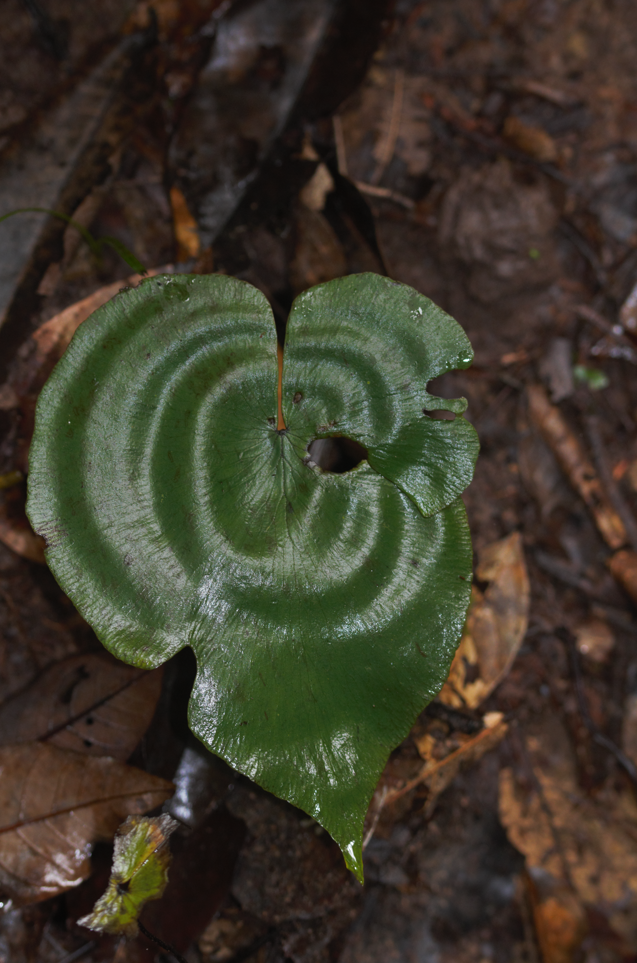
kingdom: Plantae
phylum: Tracheophyta
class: Polypodiopsida
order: Polypodiales
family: Pteridaceae
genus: Adiantum
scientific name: Adiantum krameri
